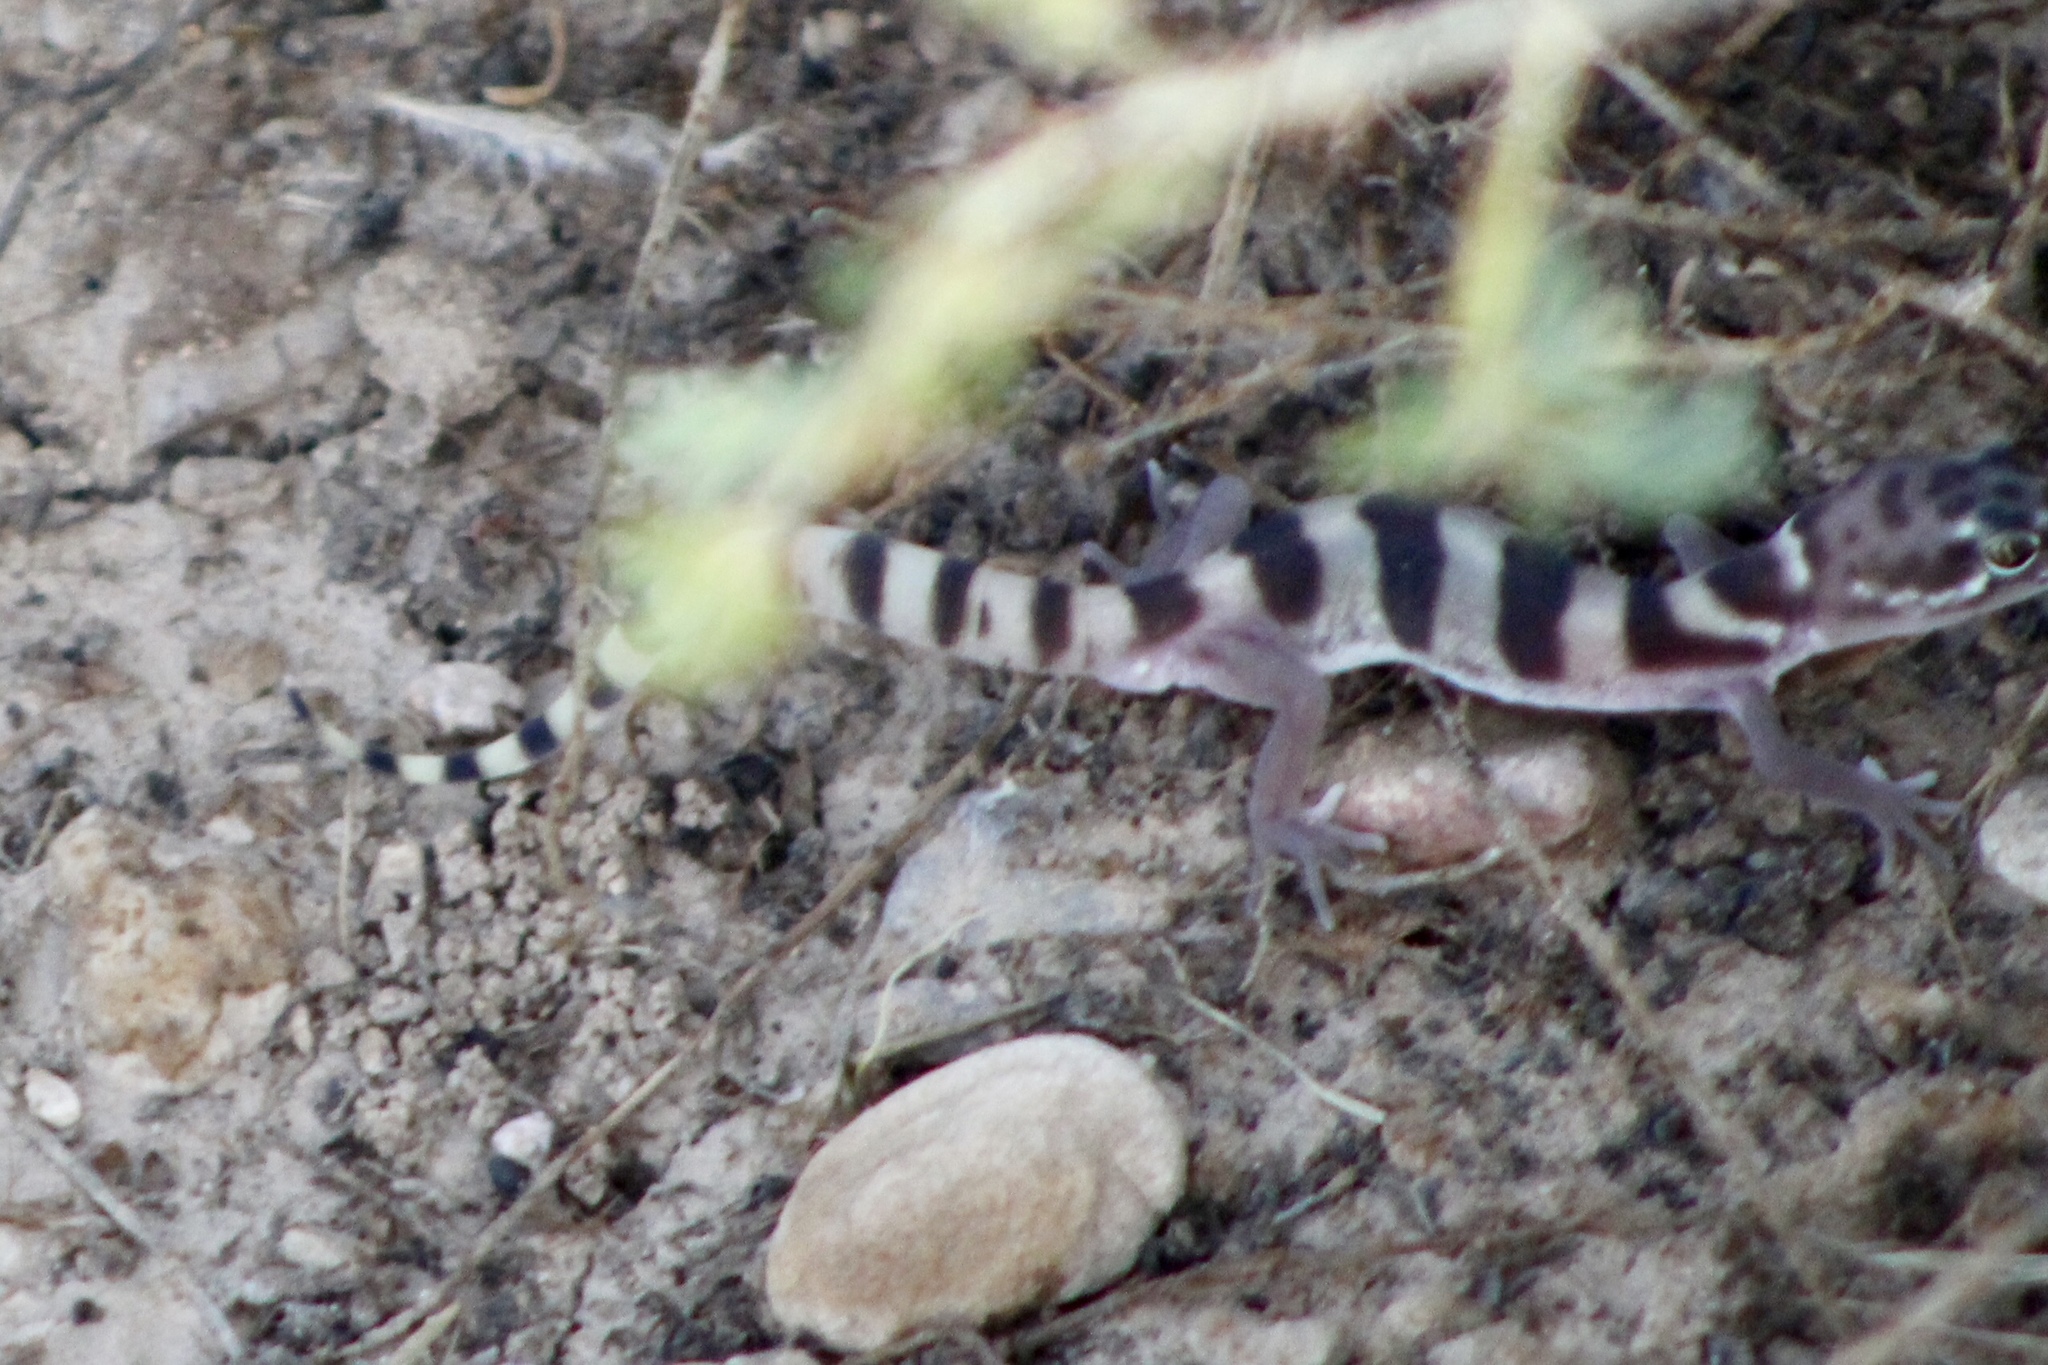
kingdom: Animalia
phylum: Chordata
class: Squamata
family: Eublepharidae
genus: Coleonyx
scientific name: Coleonyx variegatus
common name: Western banded gecko
